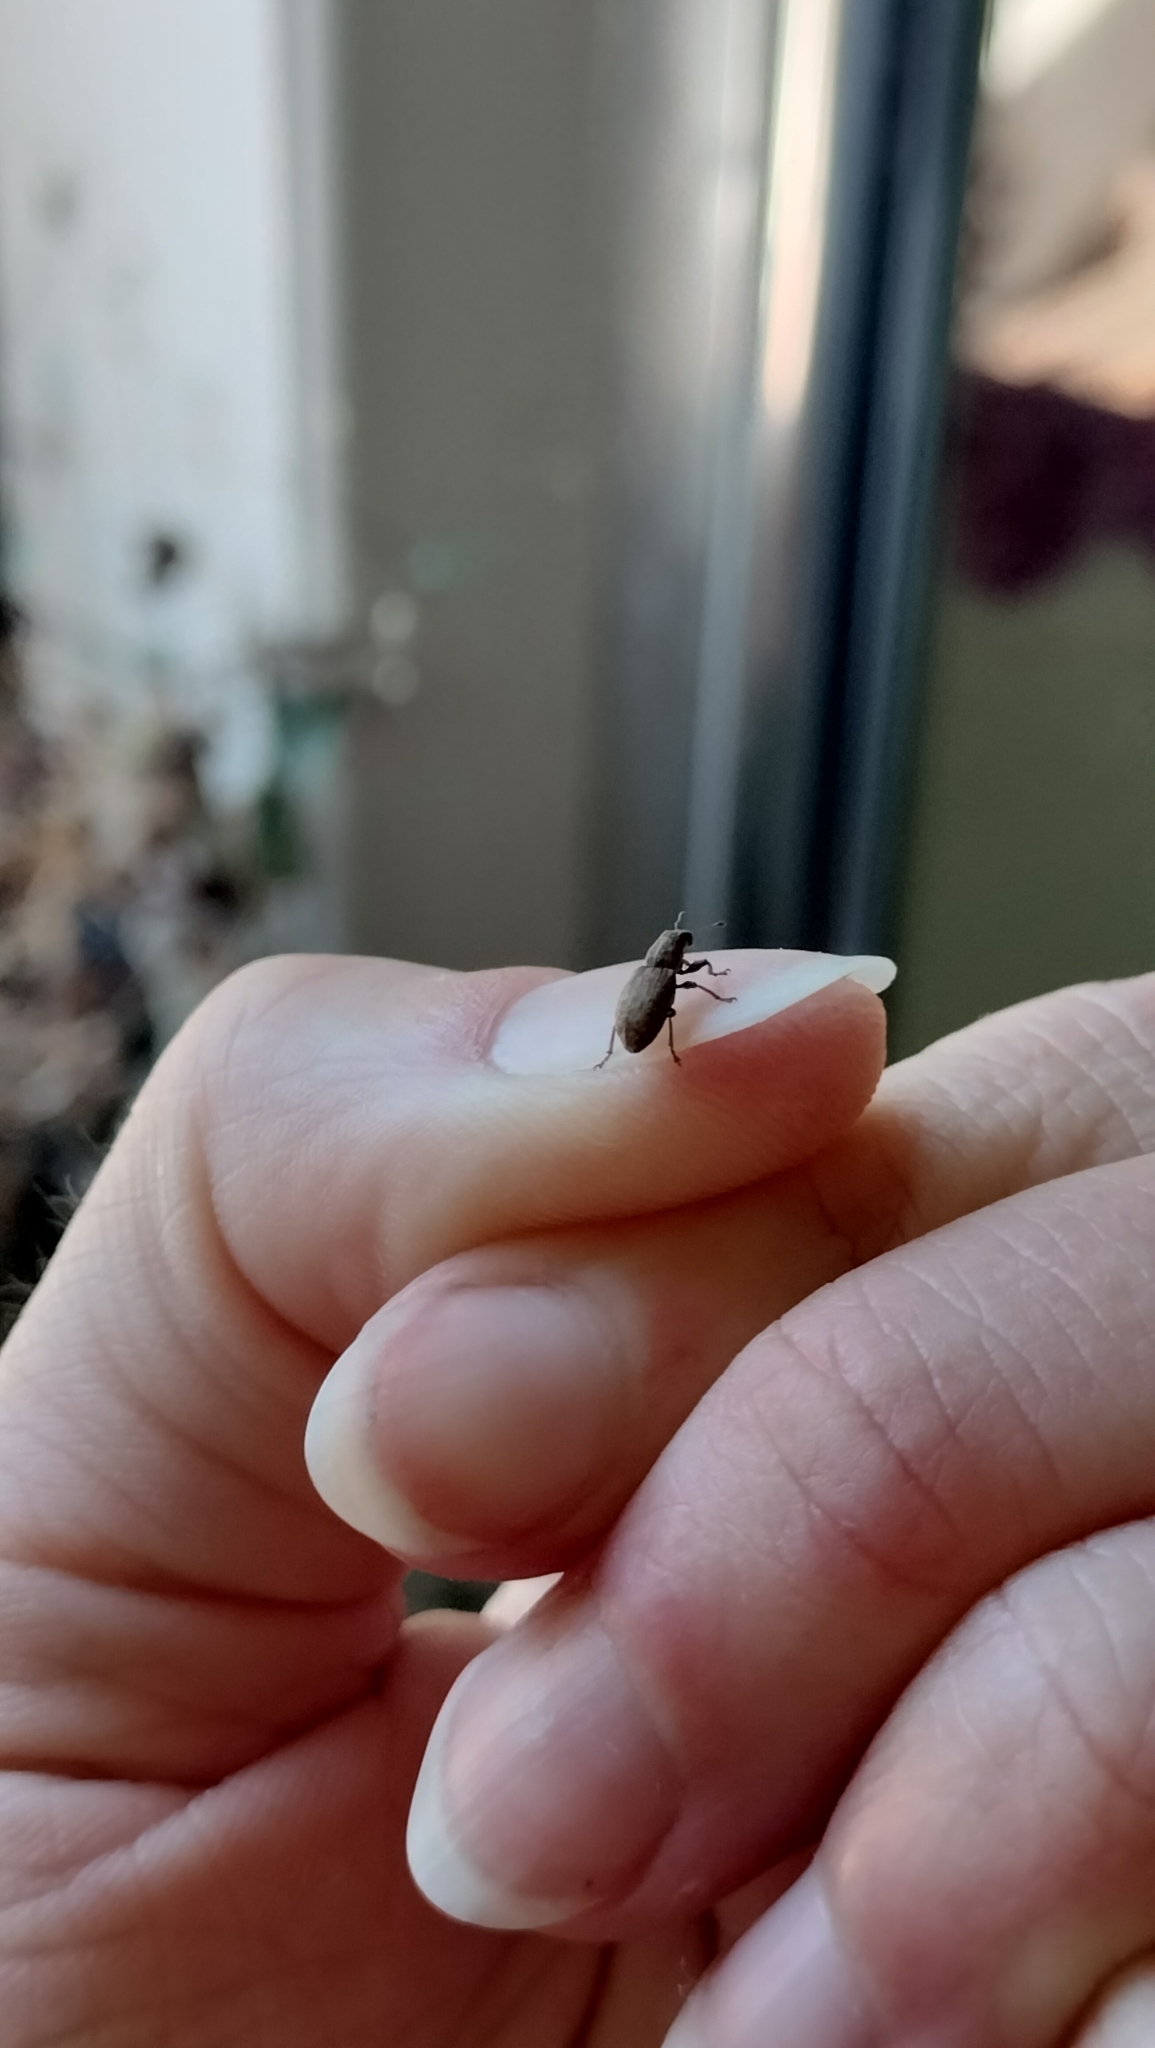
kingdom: Animalia
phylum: Arthropoda
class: Insecta
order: Coleoptera
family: Curculionidae
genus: Sitona
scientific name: Sitona obsoletus
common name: Weevil
